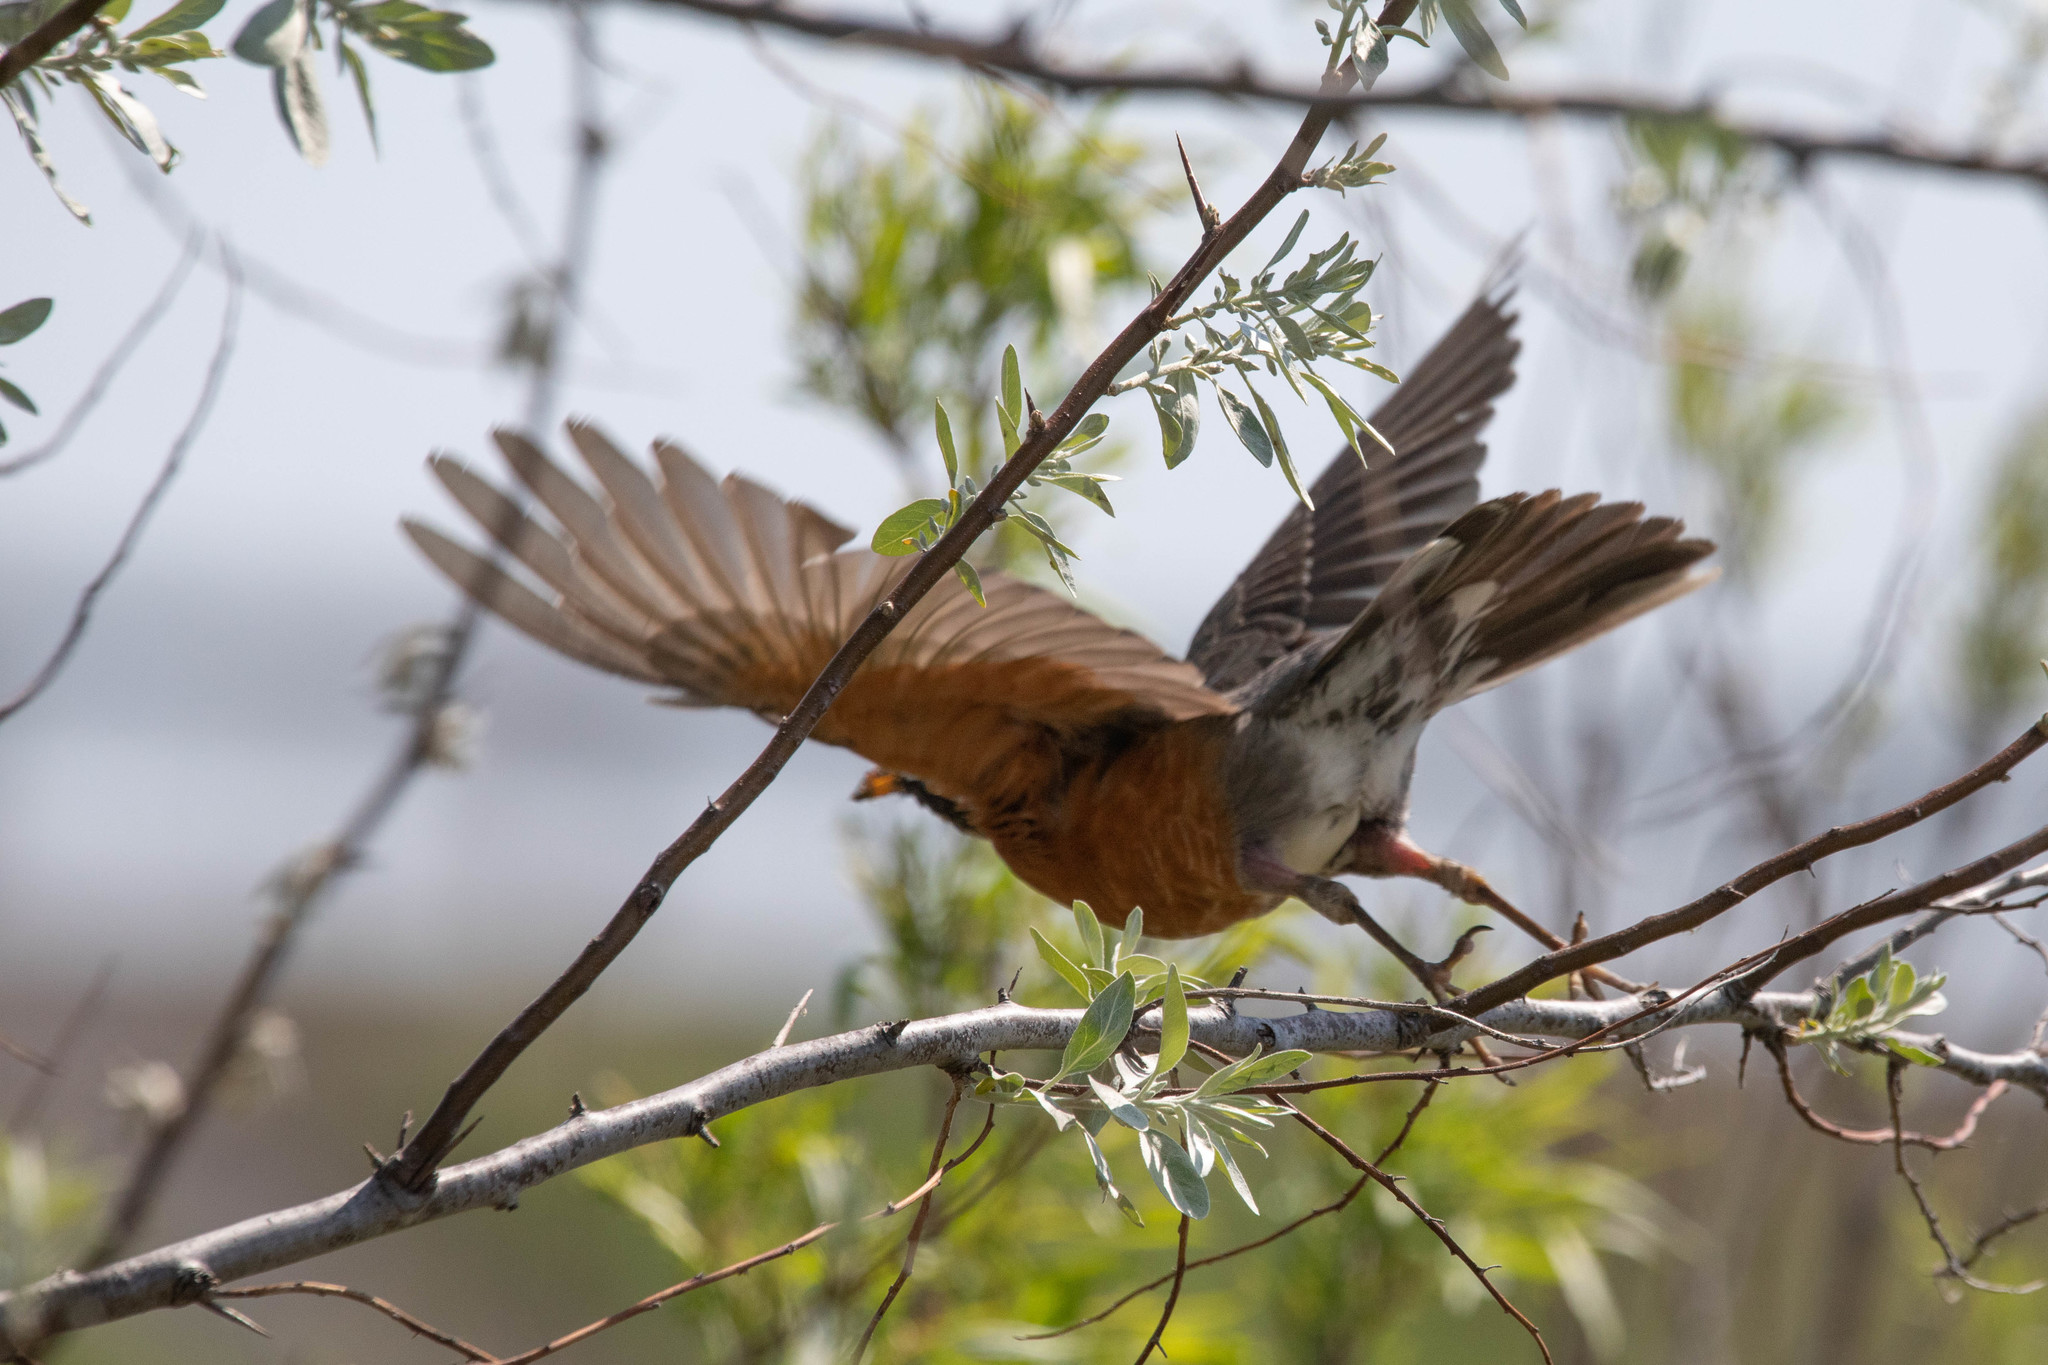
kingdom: Animalia
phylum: Chordata
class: Aves
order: Passeriformes
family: Turdidae
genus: Turdus
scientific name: Turdus migratorius
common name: American robin
